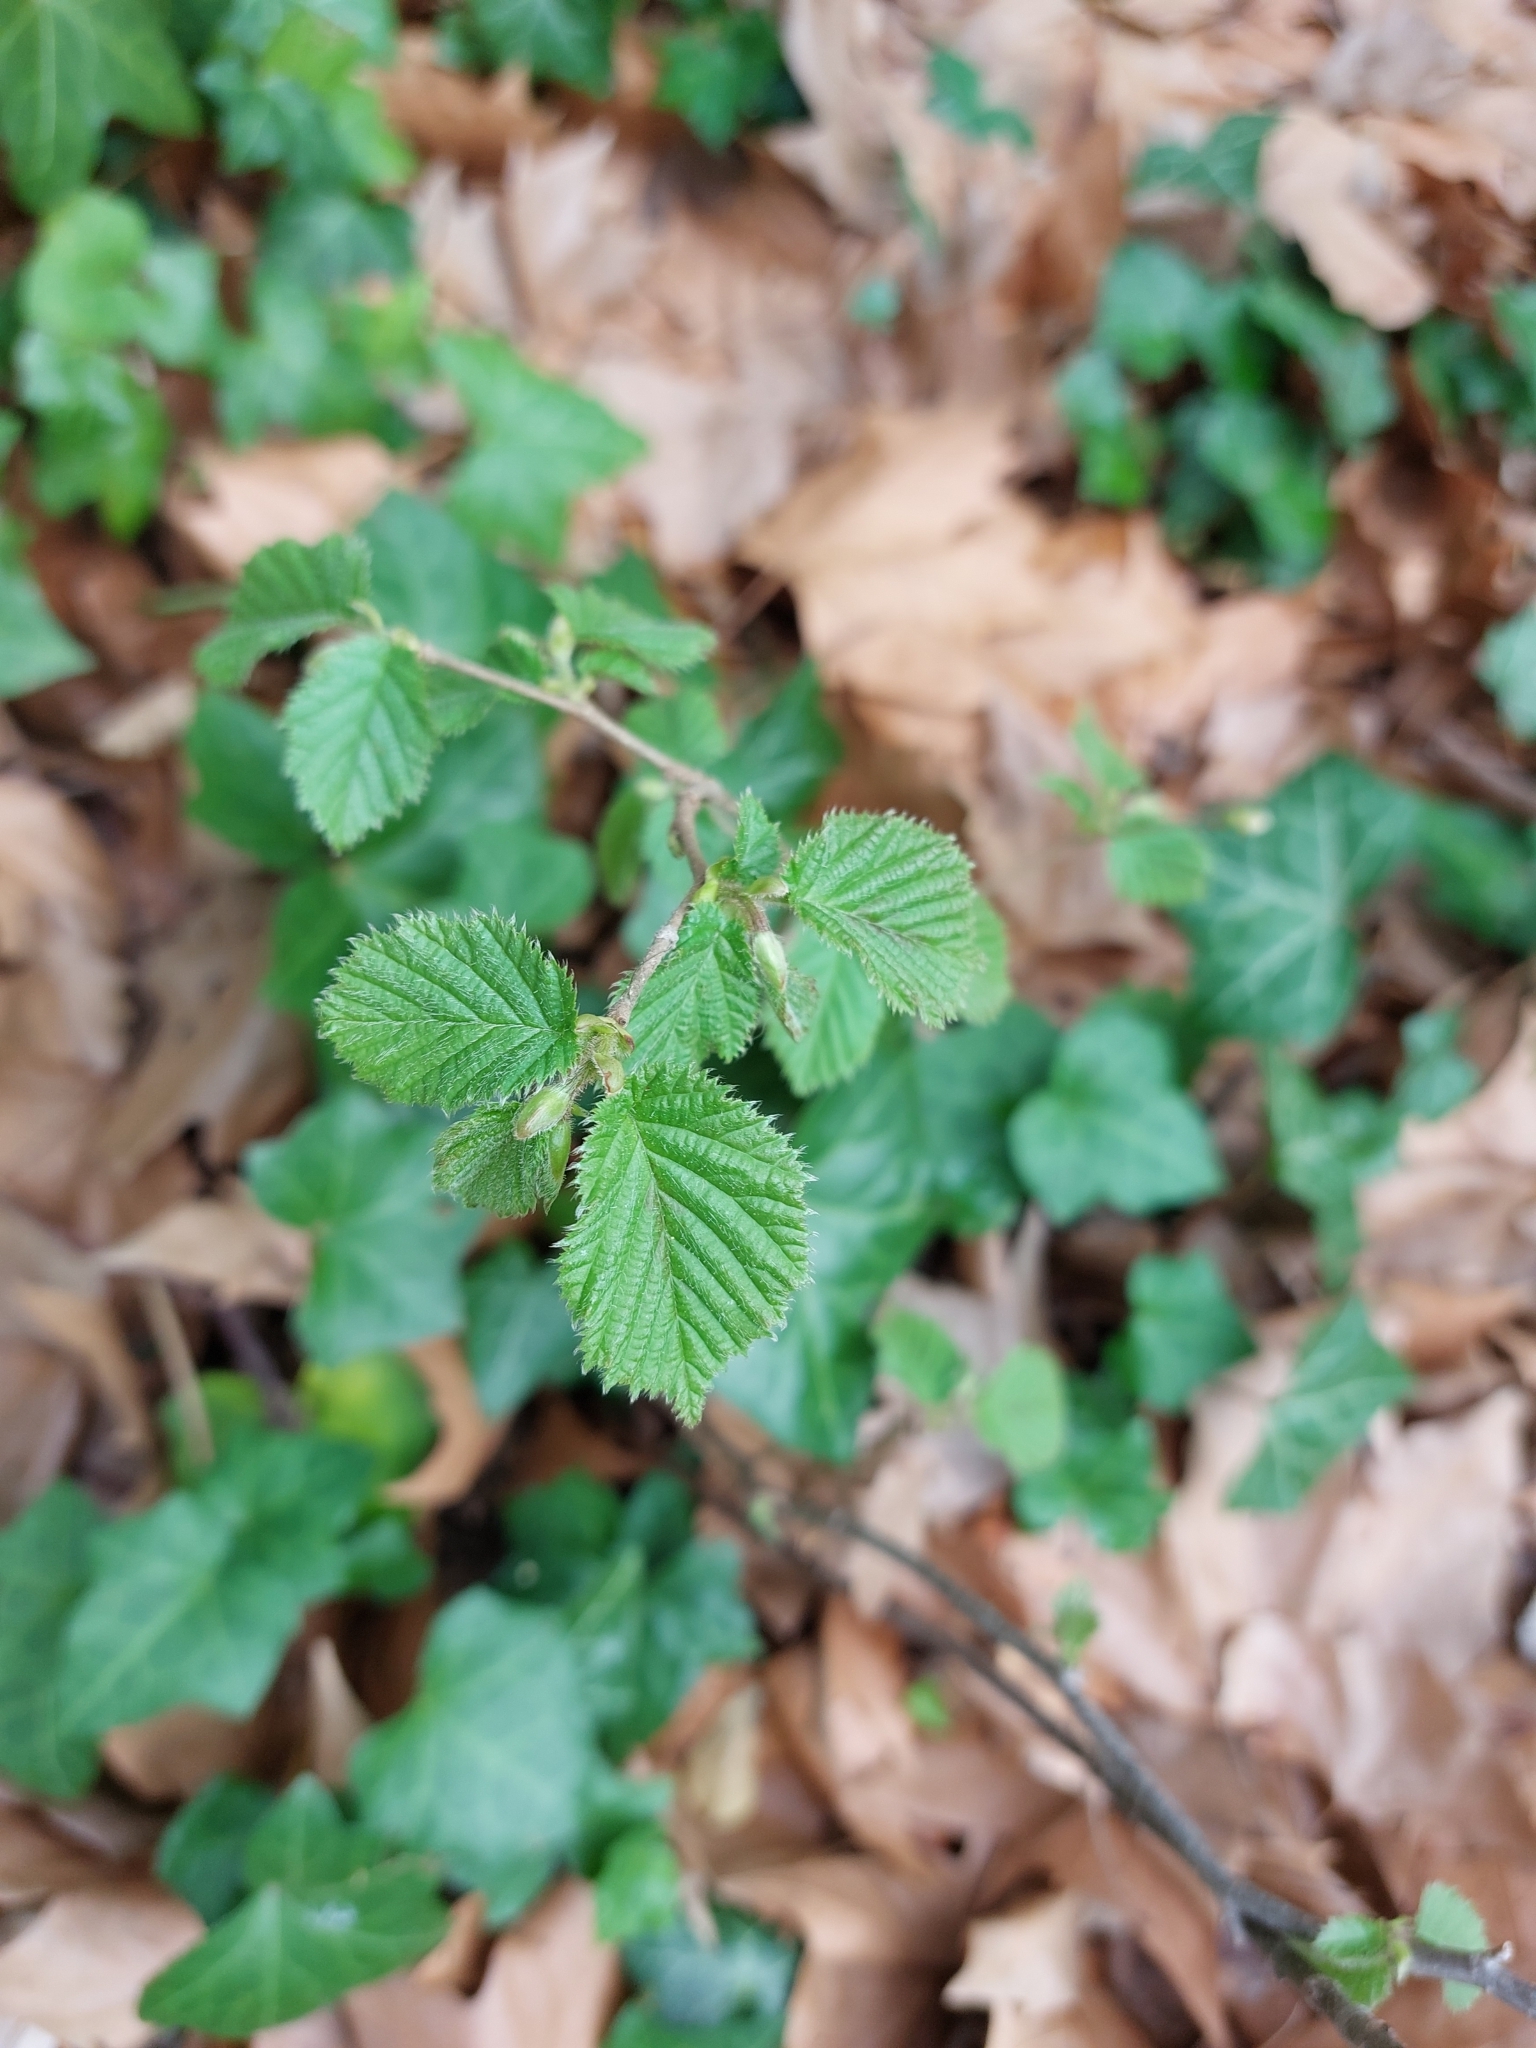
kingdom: Plantae
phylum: Tracheophyta
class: Magnoliopsida
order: Fagales
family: Betulaceae
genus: Corylus
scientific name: Corylus avellana
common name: European hazel
